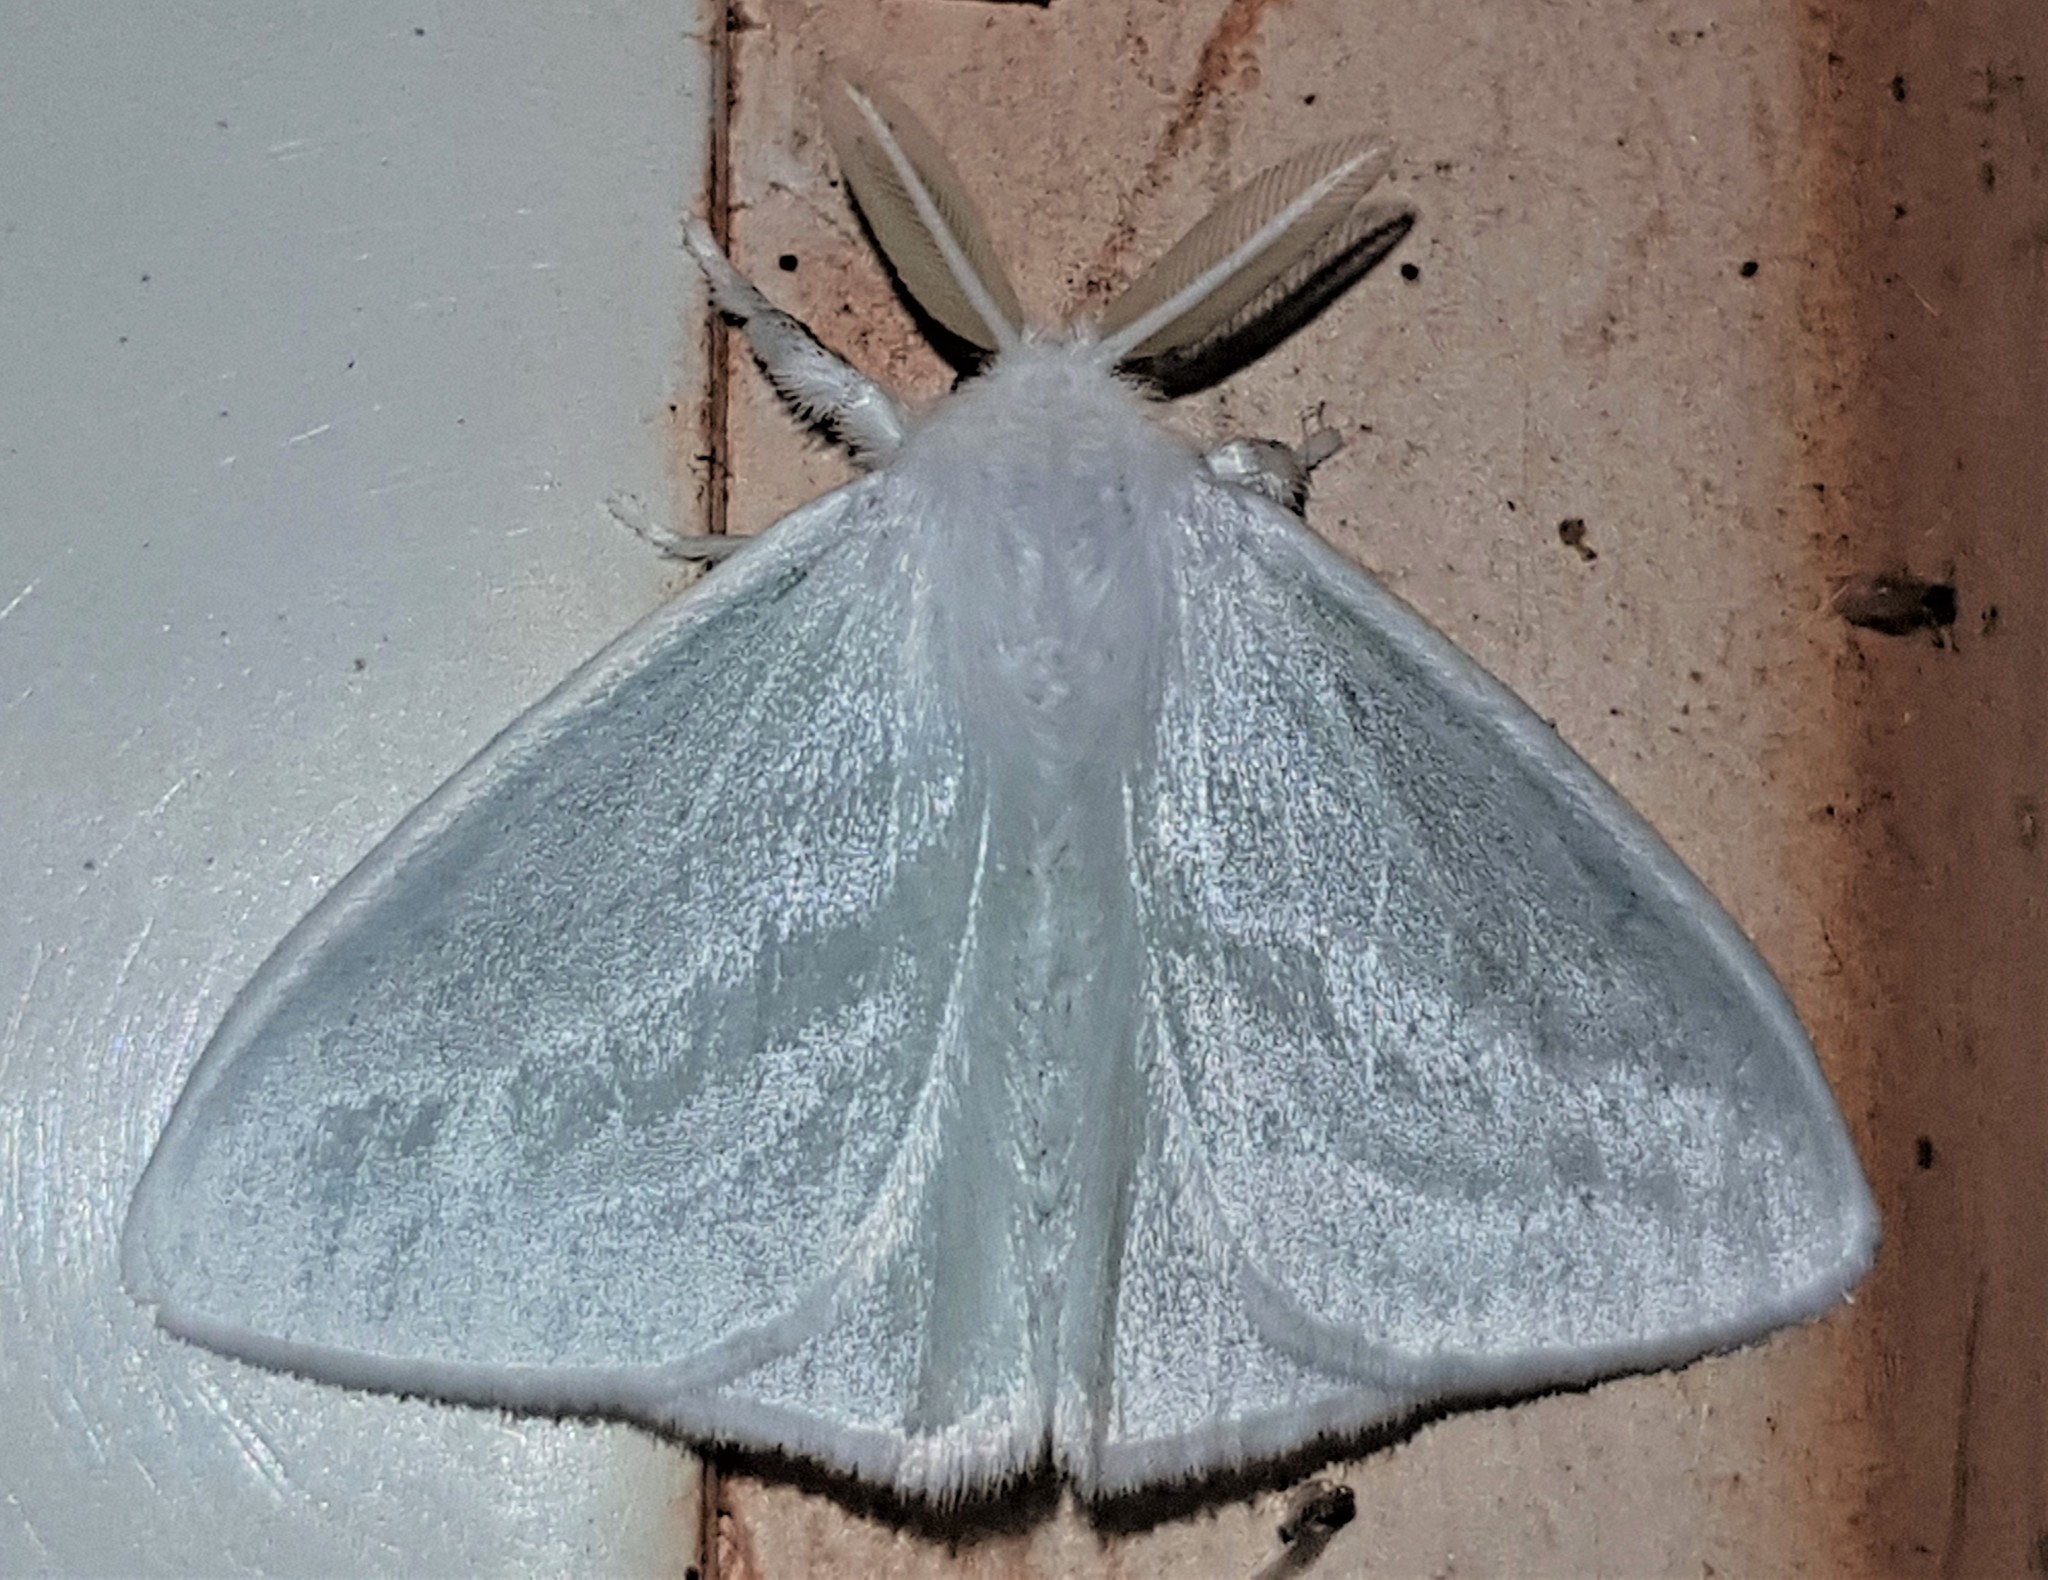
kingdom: Animalia
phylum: Arthropoda
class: Insecta
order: Lepidoptera
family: Erebidae
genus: Caviria
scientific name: Caviria regina
